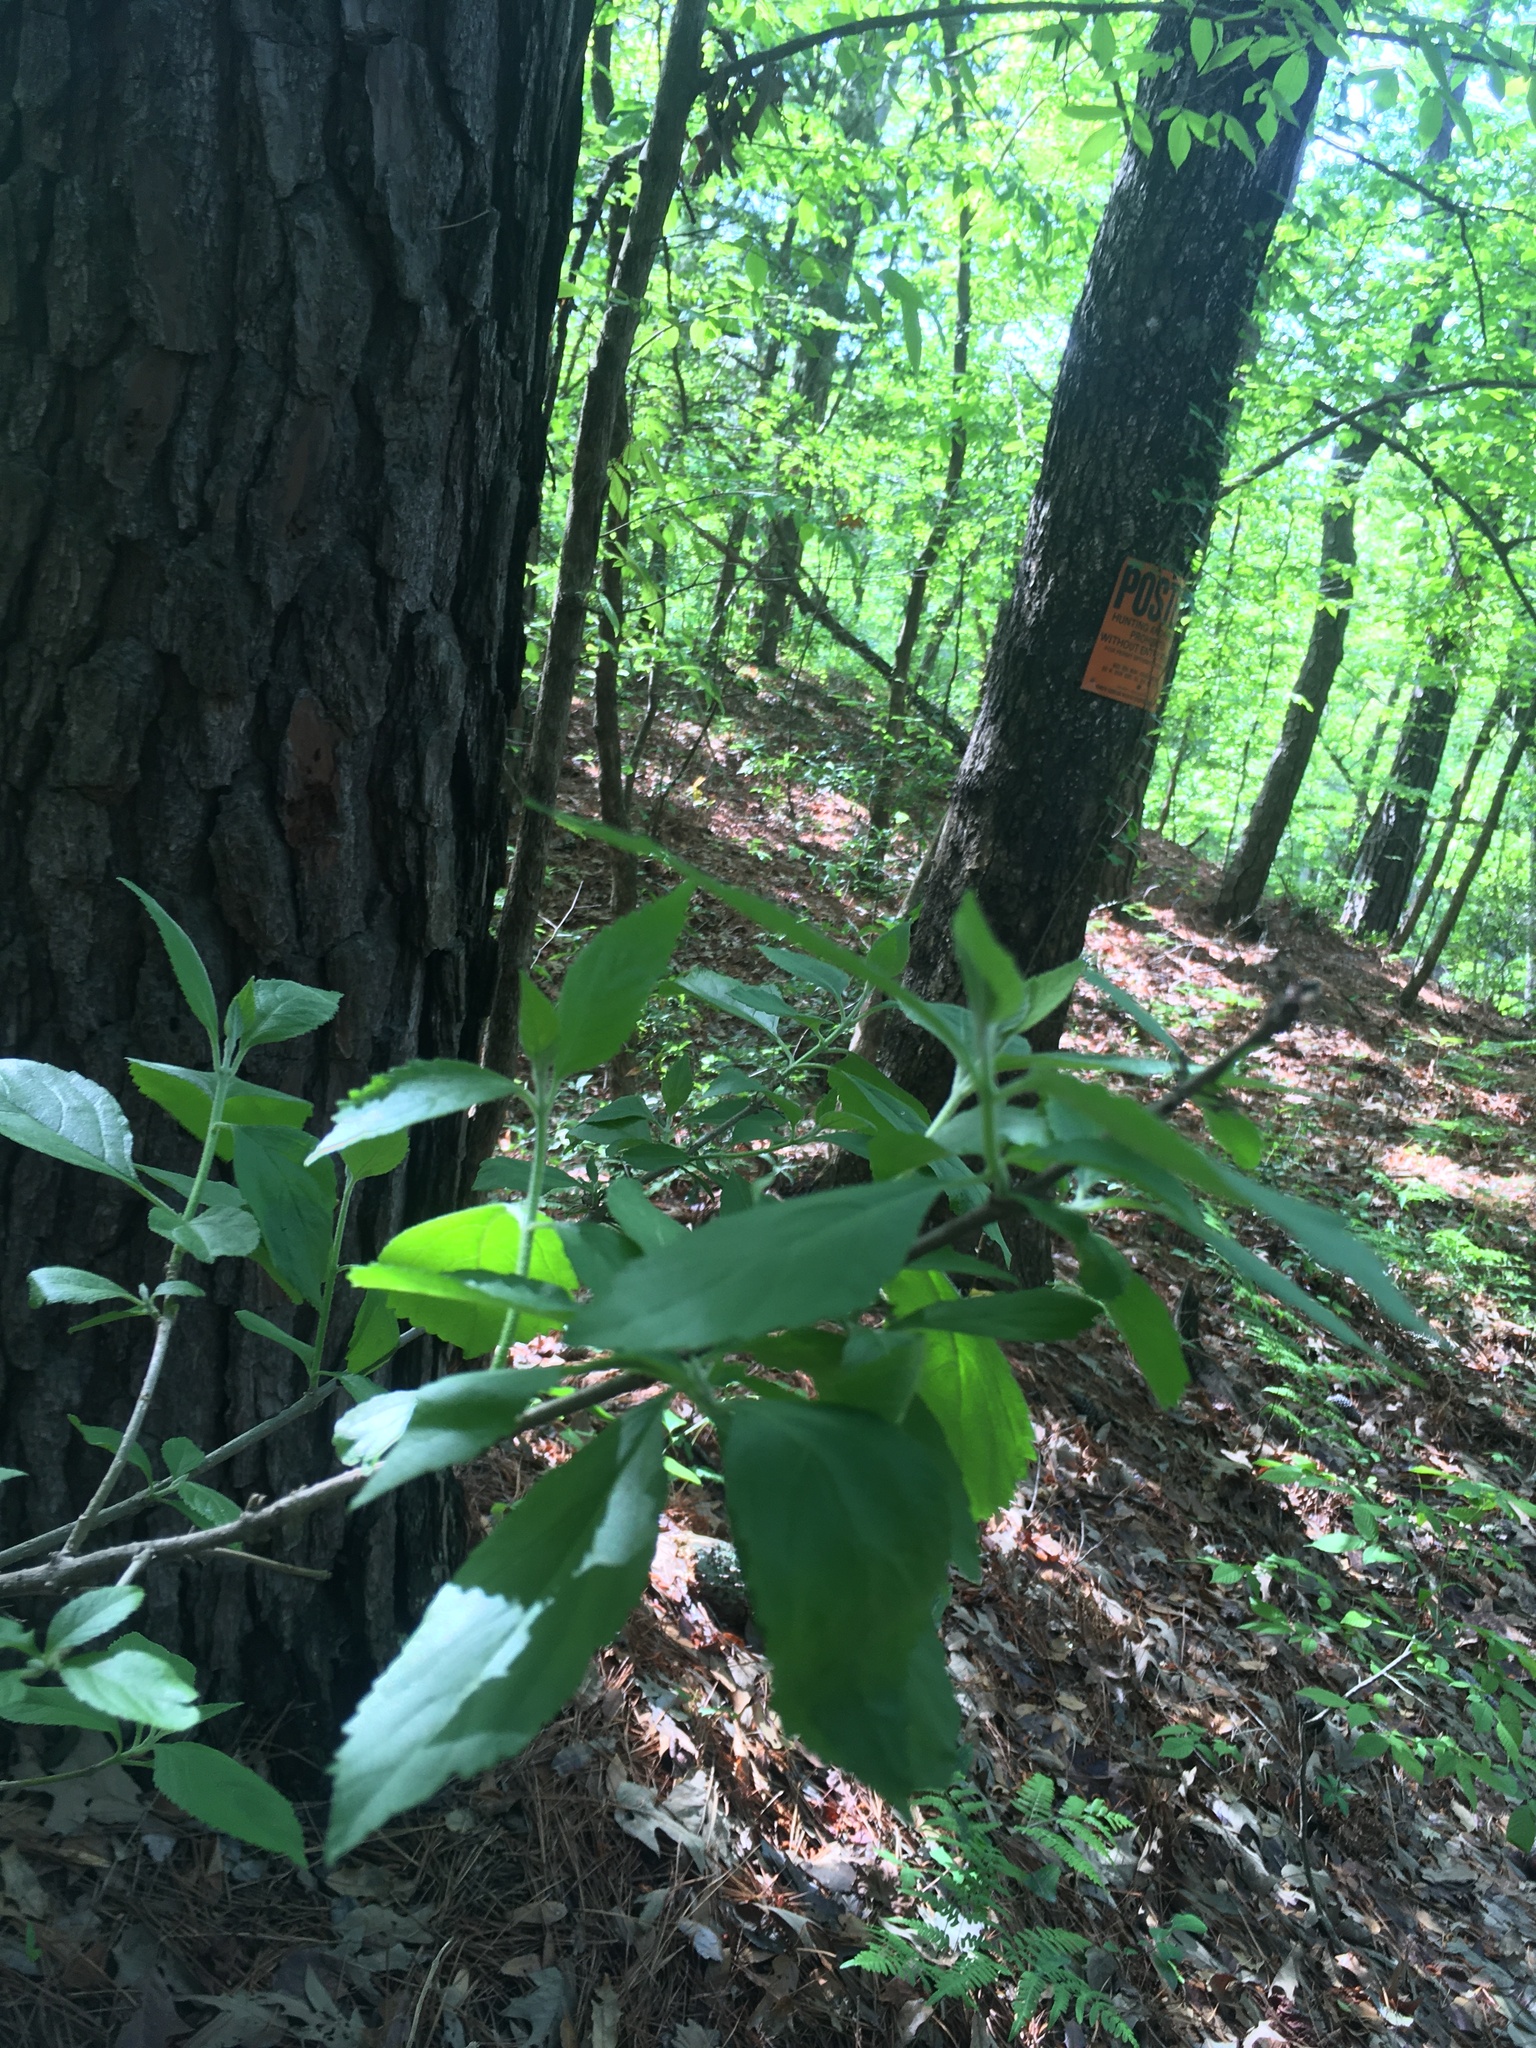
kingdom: Plantae
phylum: Tracheophyta
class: Magnoliopsida
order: Lamiales
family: Lamiaceae
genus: Callicarpa
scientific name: Callicarpa americana
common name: American beautyberry
